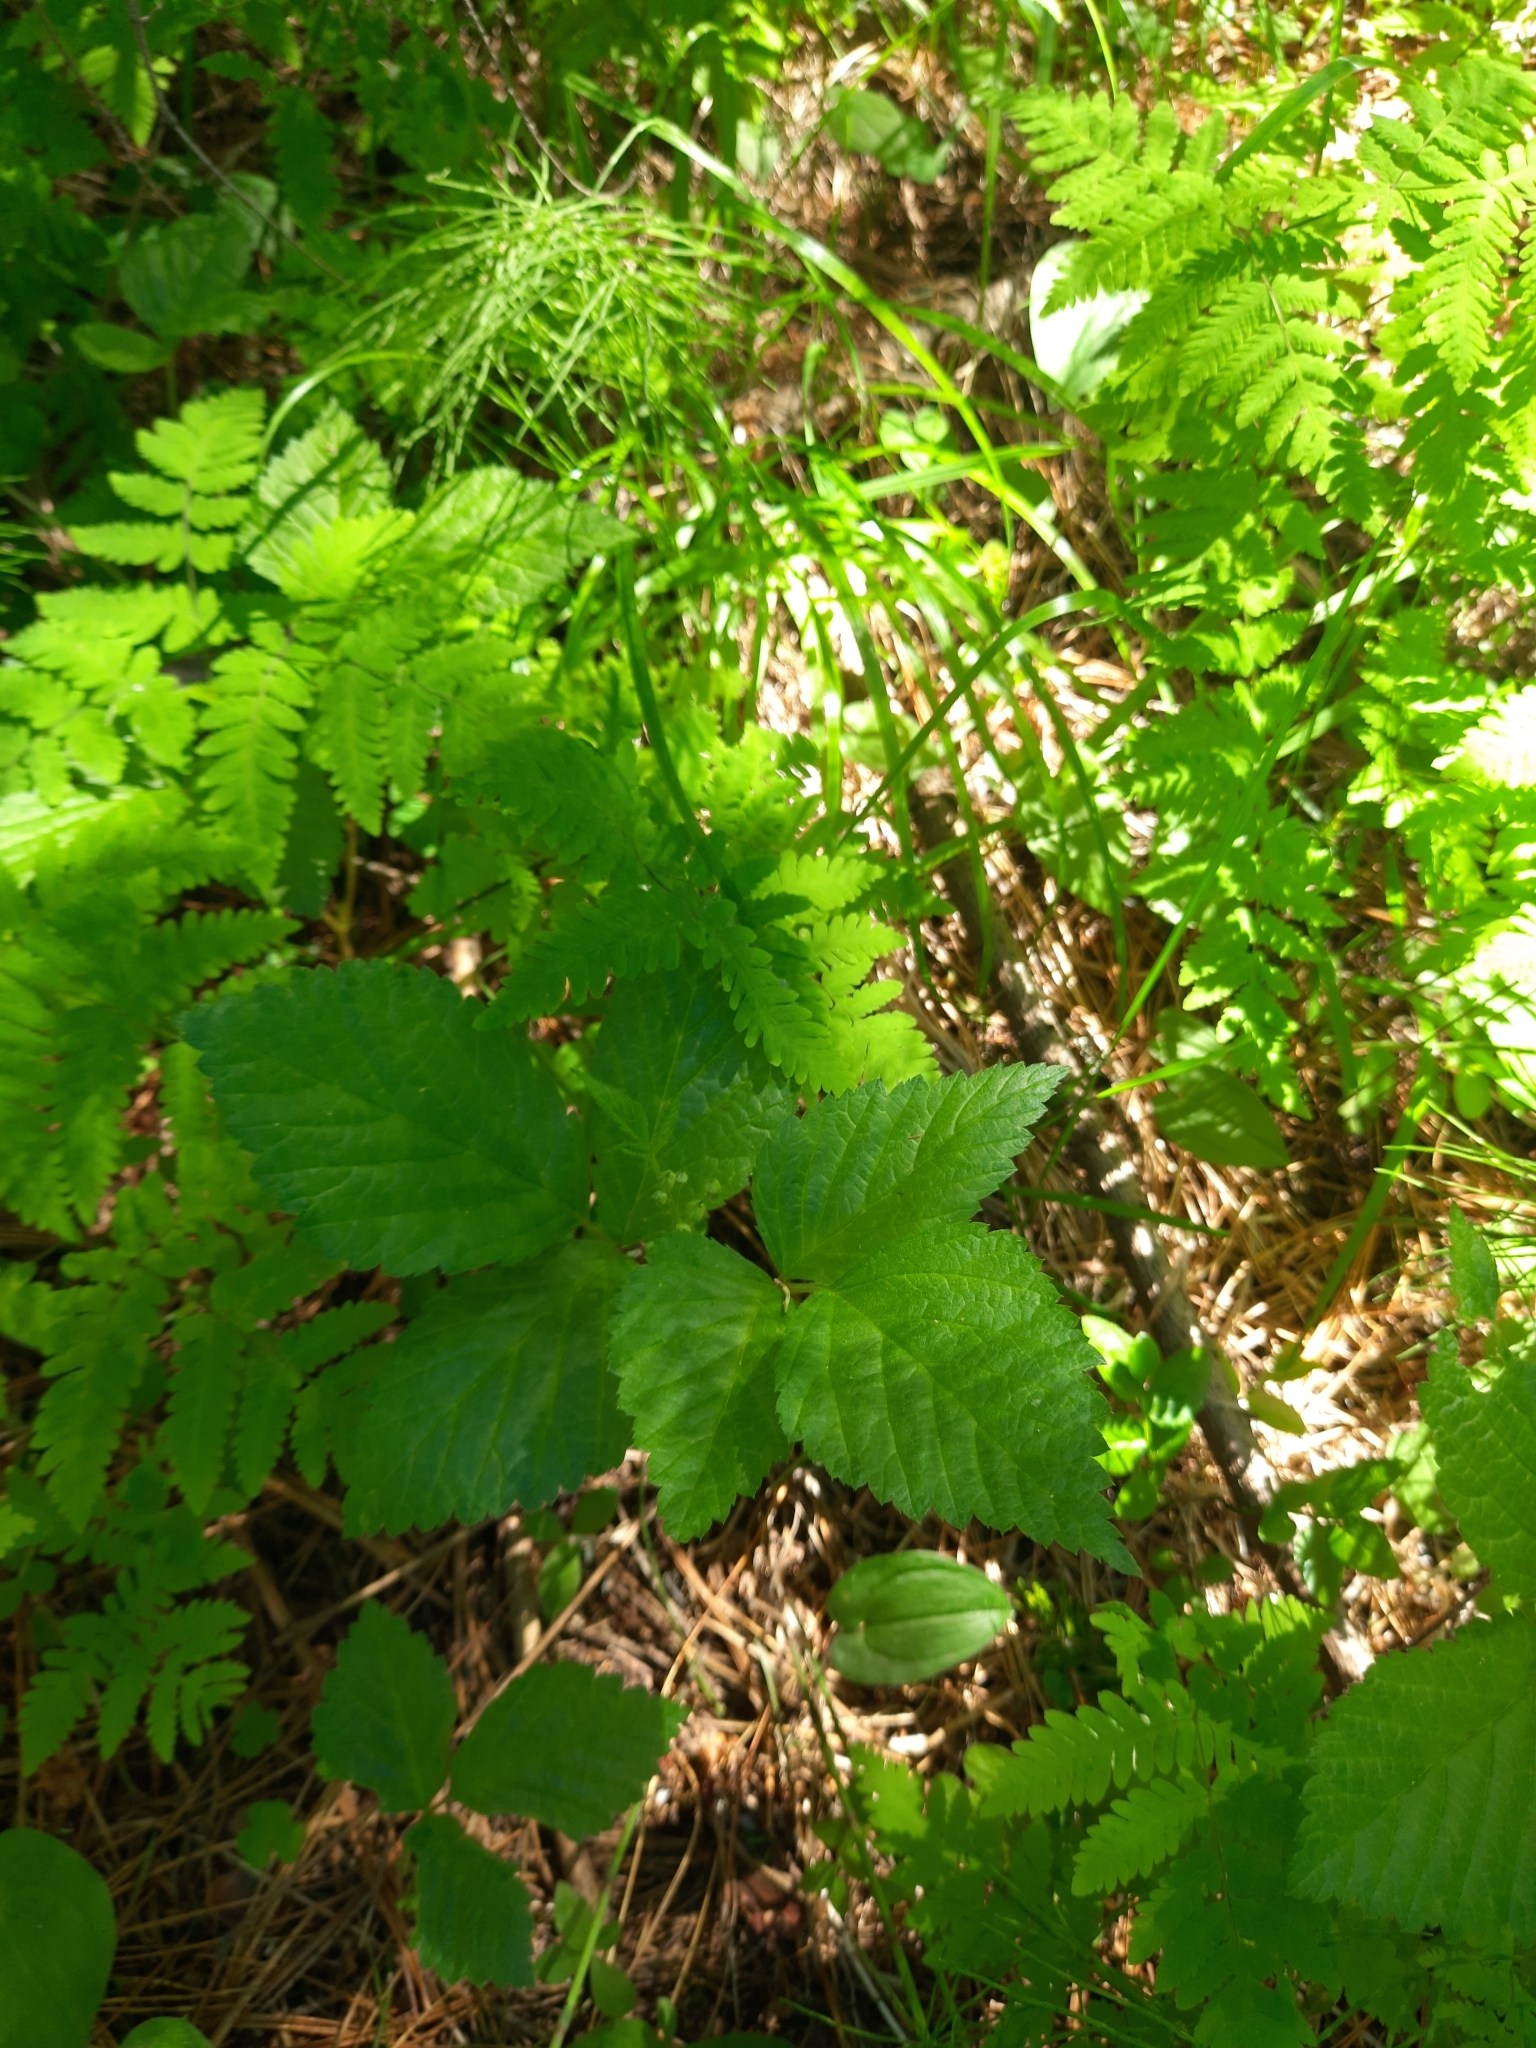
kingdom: Plantae
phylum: Tracheophyta
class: Magnoliopsida
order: Rosales
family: Rosaceae
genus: Rubus
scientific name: Rubus saxatilis
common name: Stone bramble
